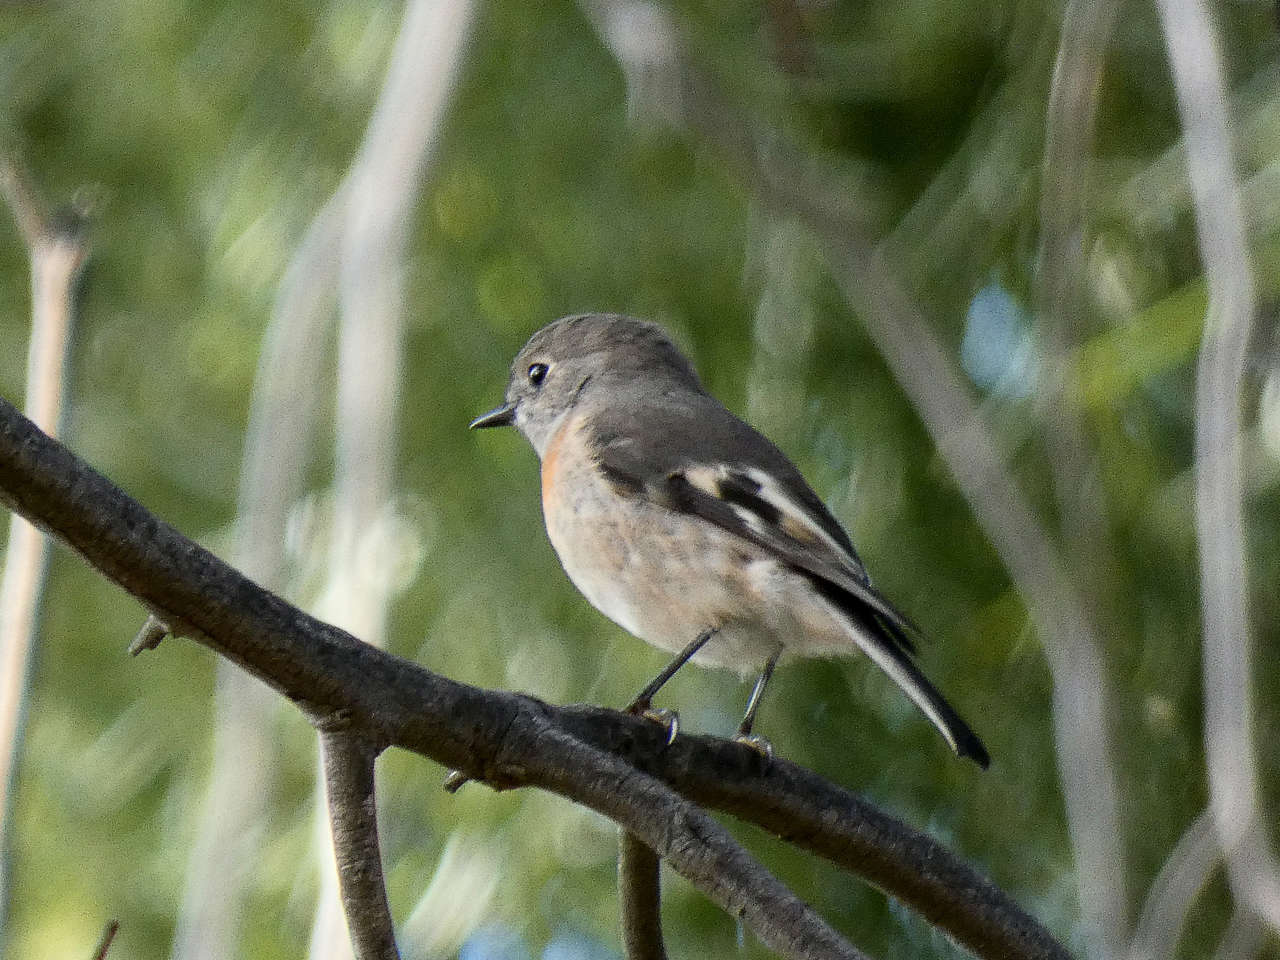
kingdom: Animalia
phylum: Chordata
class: Aves
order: Passeriformes
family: Petroicidae
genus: Petroica
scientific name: Petroica boodang
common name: Scarlet robin
